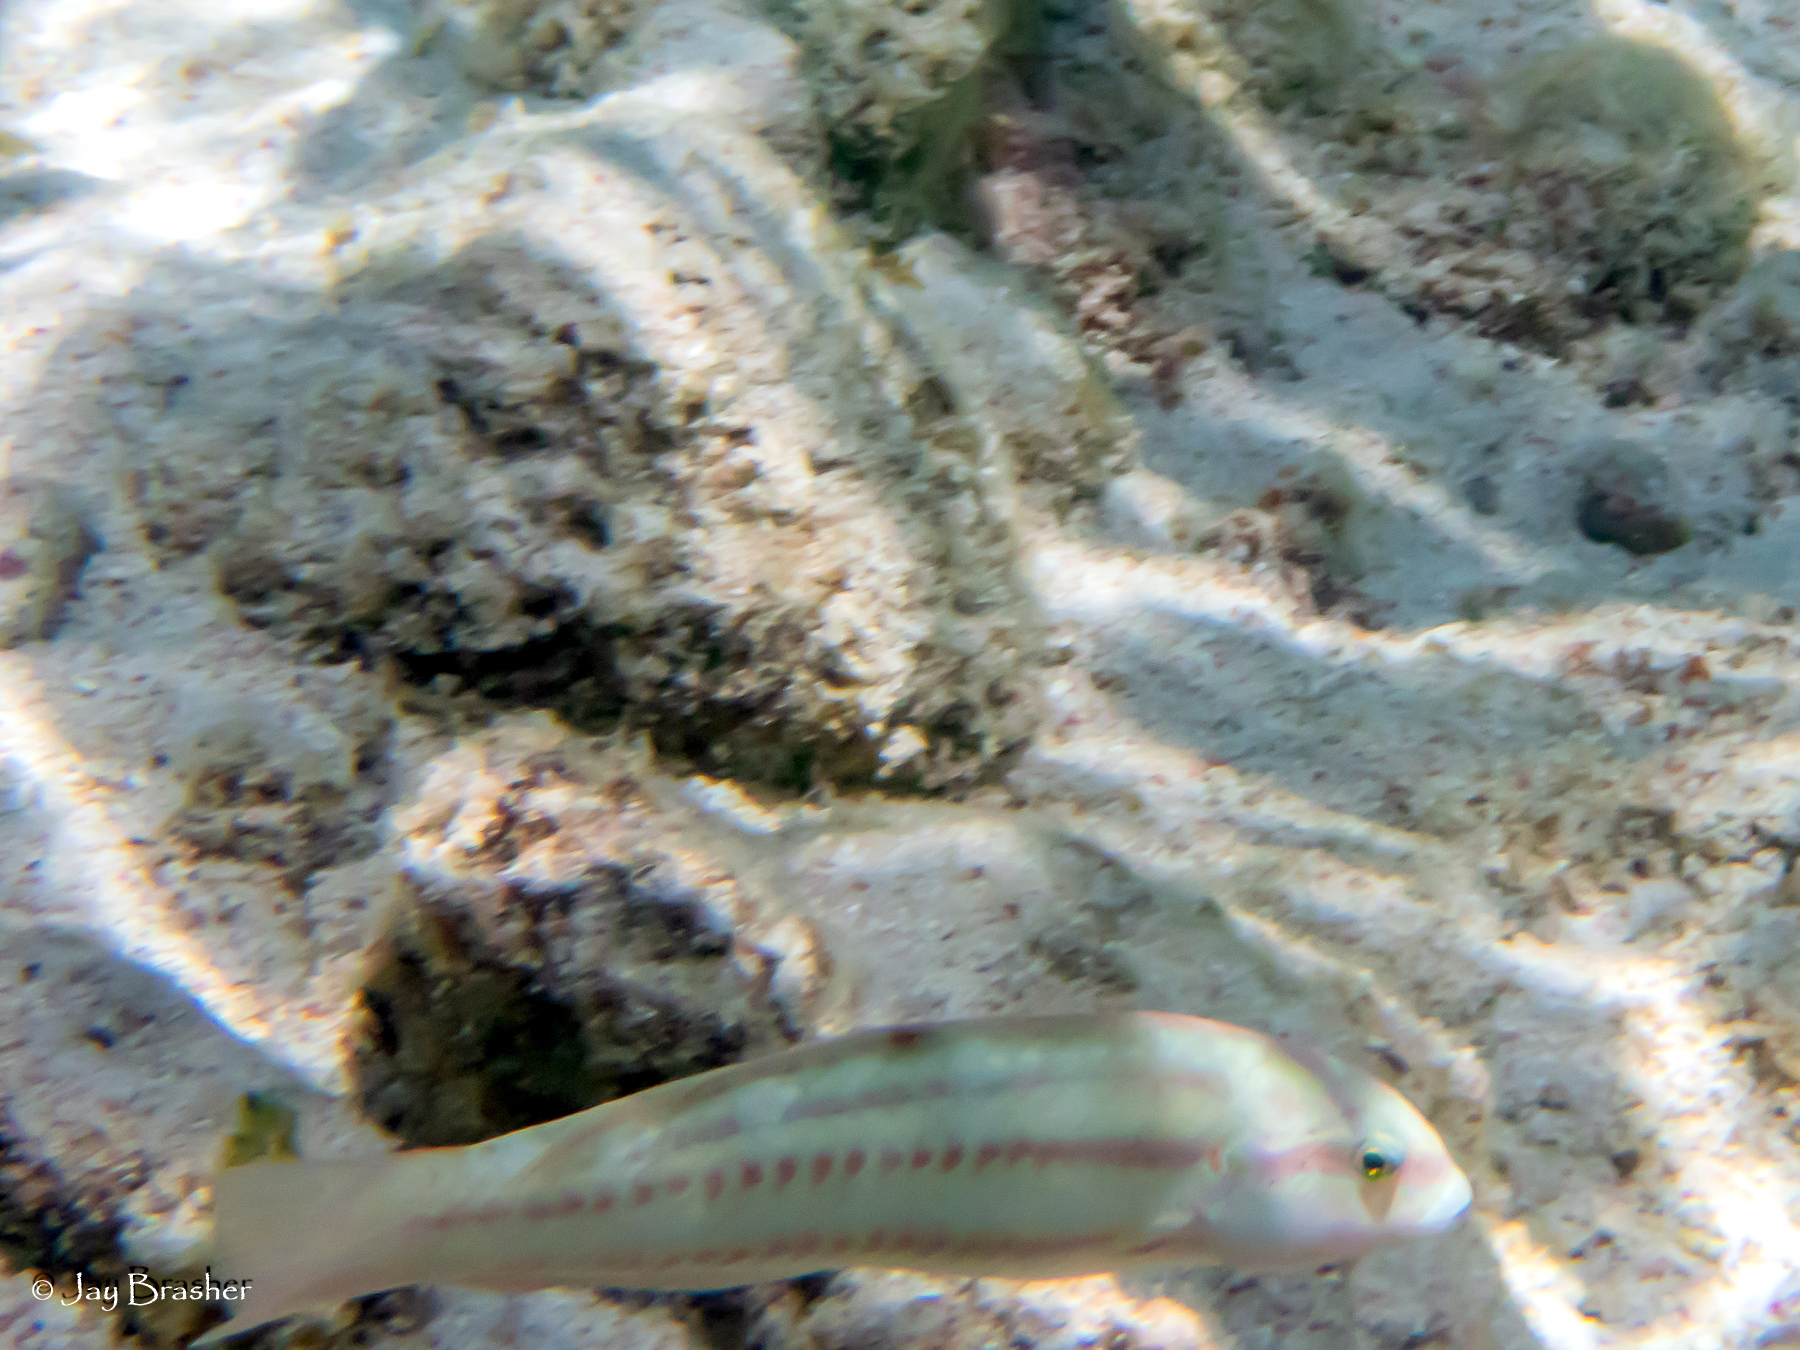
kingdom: Animalia
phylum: Chordata
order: Perciformes
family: Labridae
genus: Halichoeres
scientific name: Halichoeres bivittatus
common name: Slippery dick
